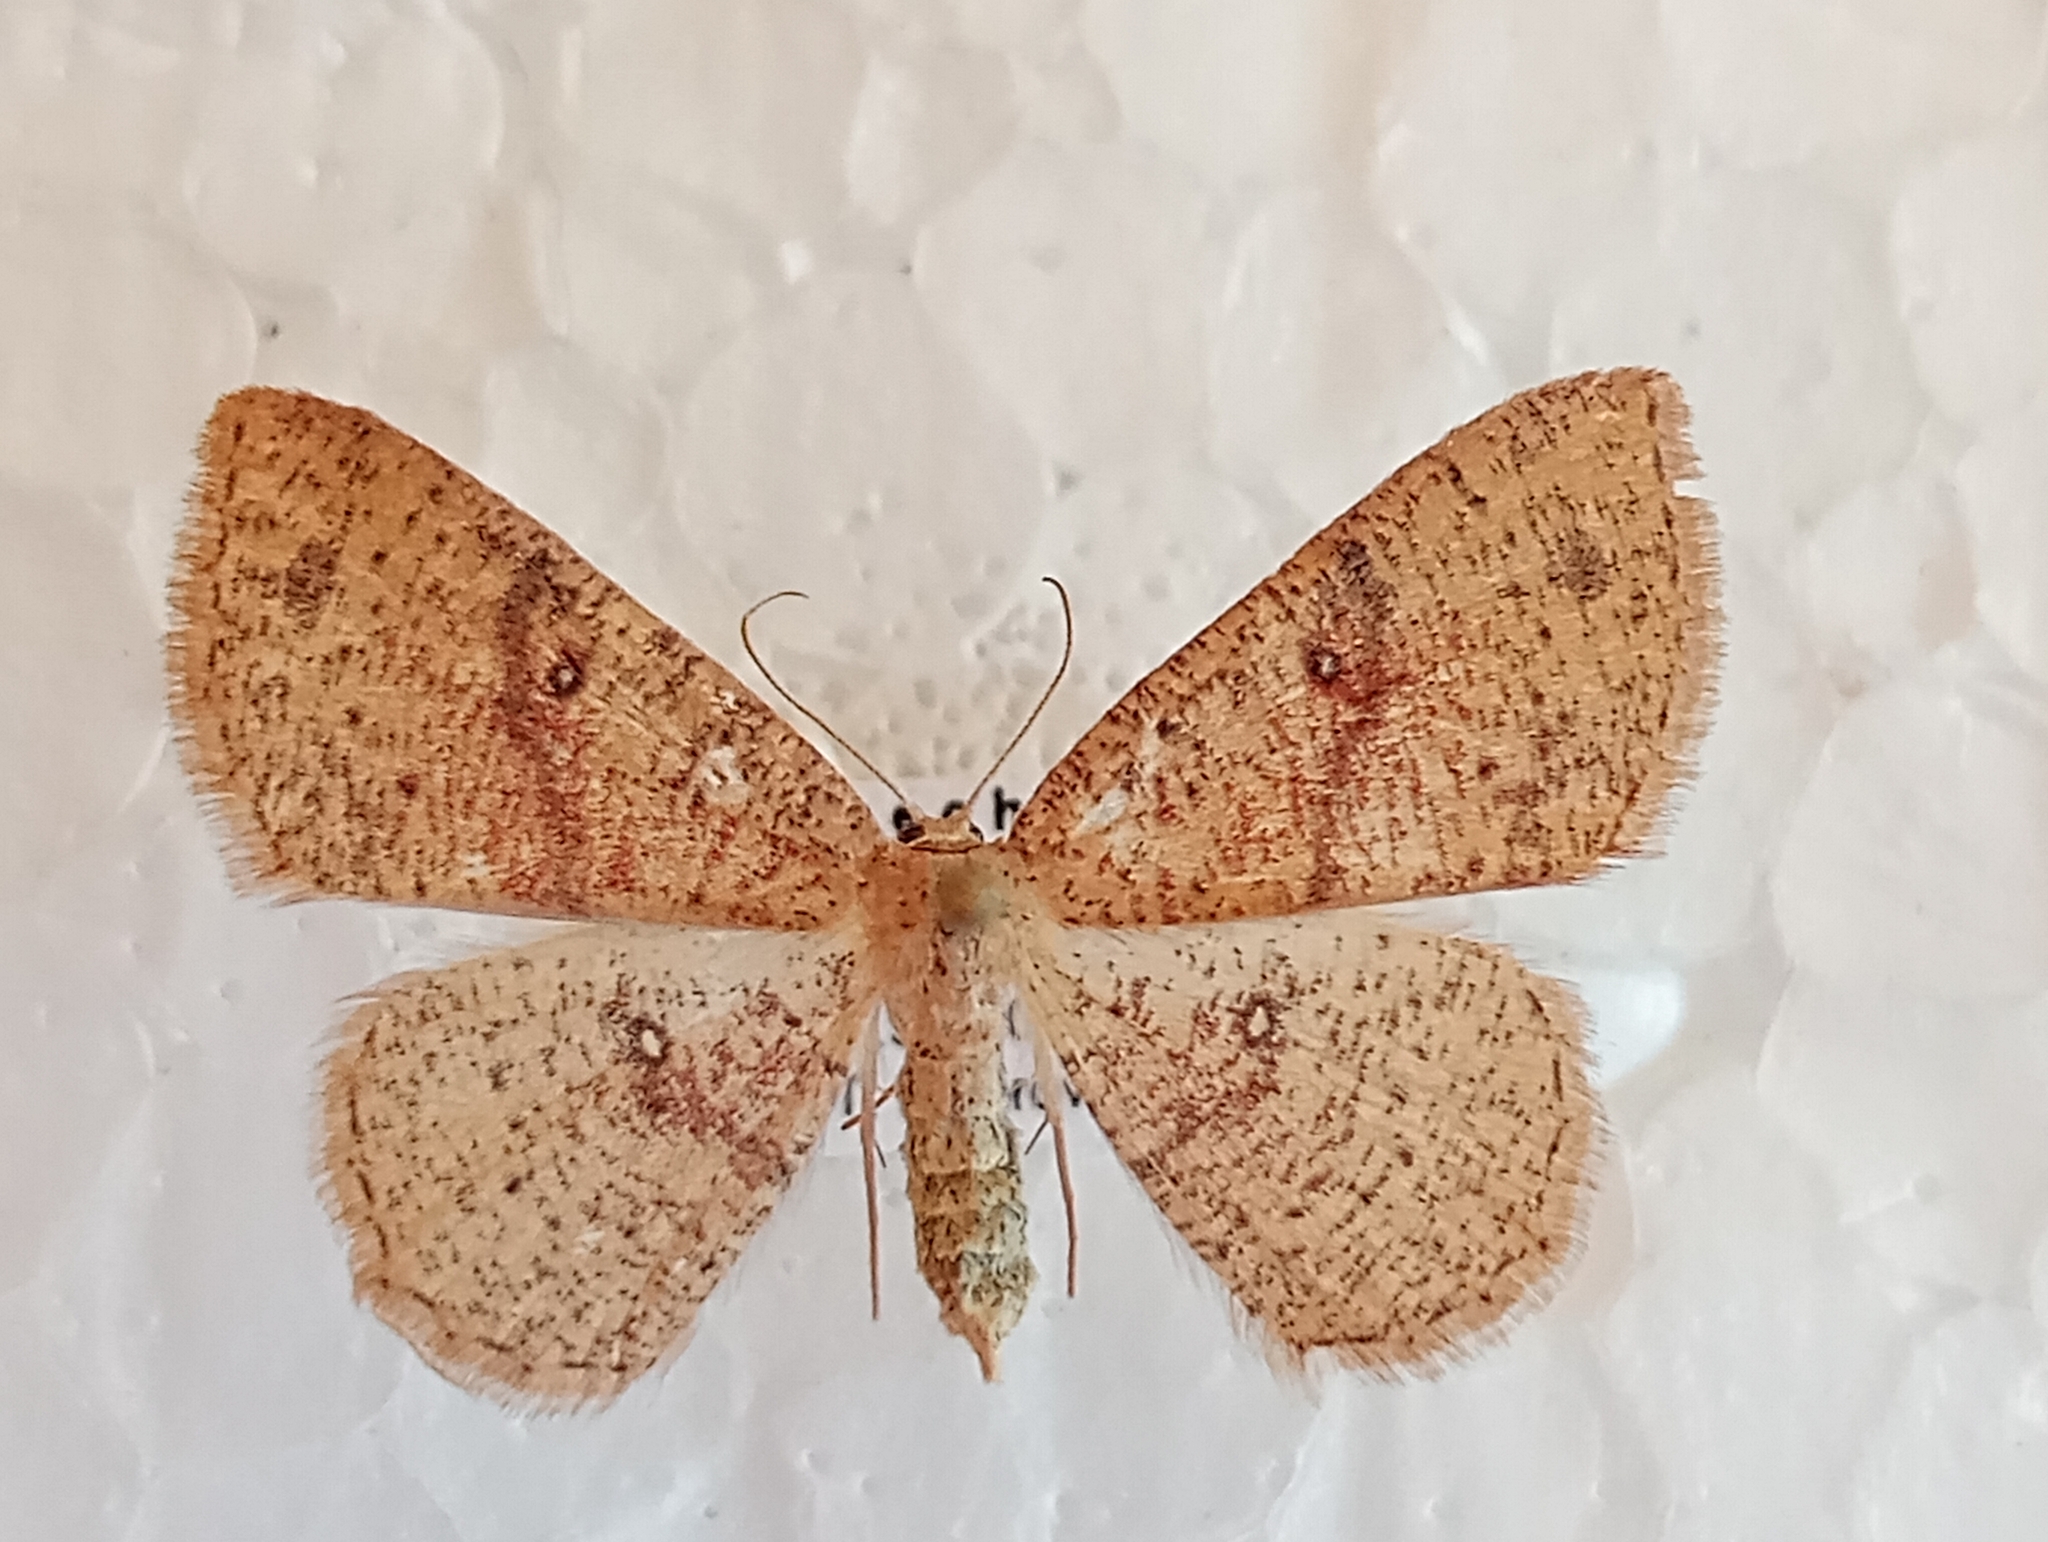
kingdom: Animalia
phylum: Arthropoda
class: Insecta
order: Lepidoptera
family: Geometridae
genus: Cyclophora
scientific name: Cyclophora porata
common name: False mocha
